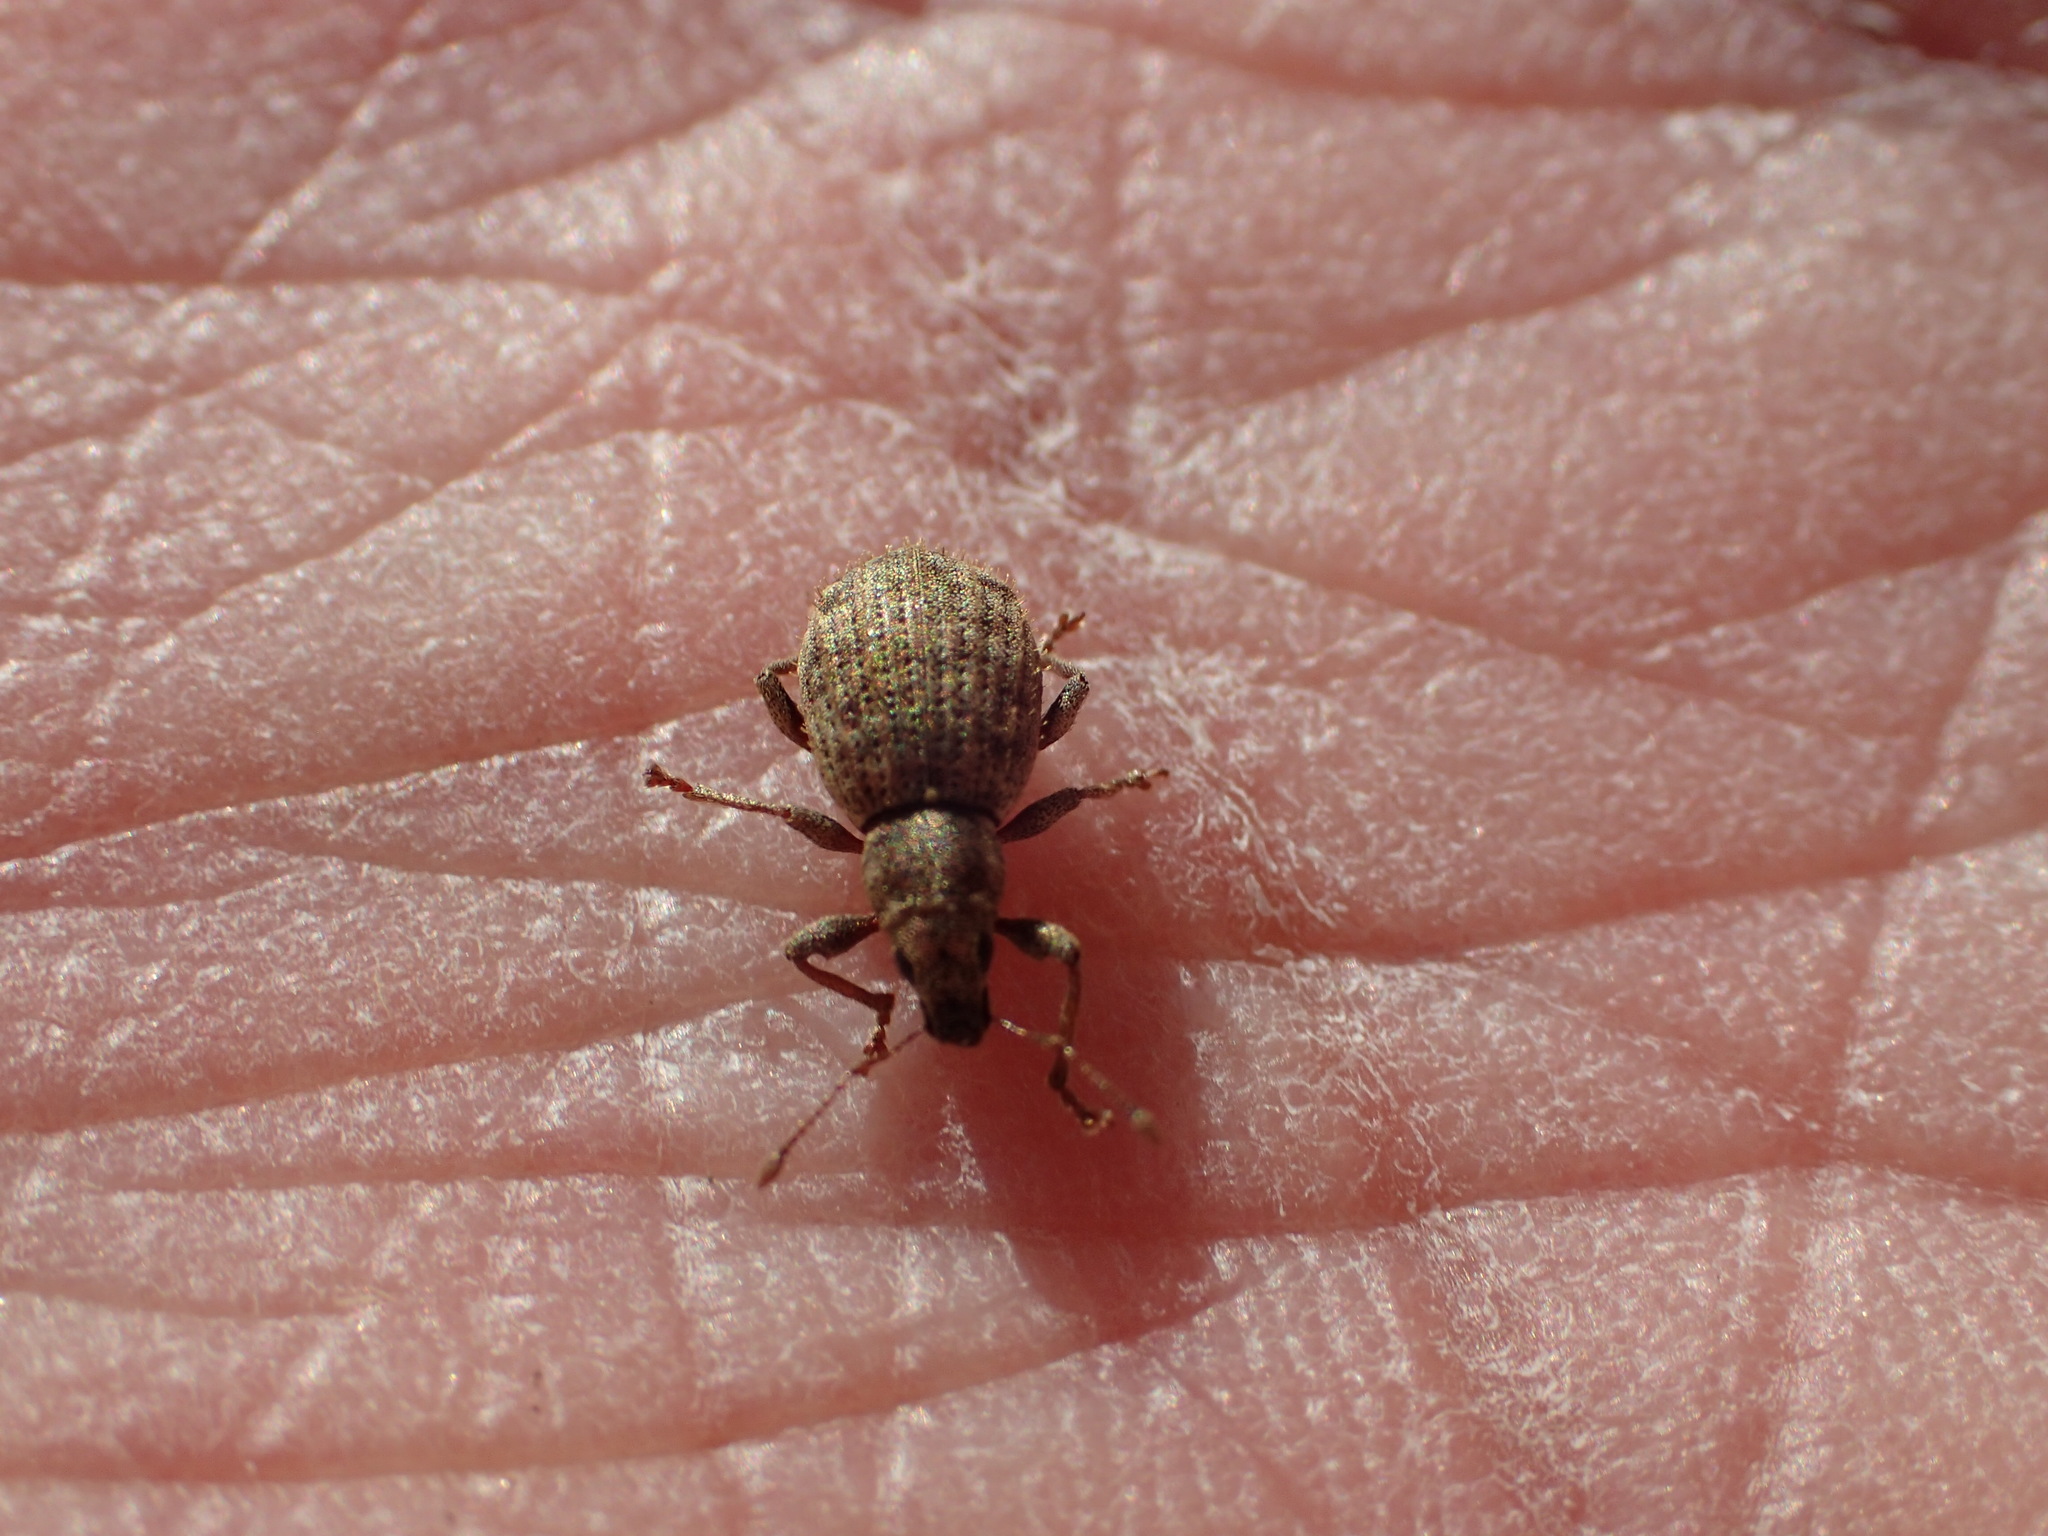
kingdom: Animalia
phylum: Arthropoda
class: Insecta
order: Coleoptera
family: Curculionidae
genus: Sciaphilus
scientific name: Sciaphilus asperatus
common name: Weevil
